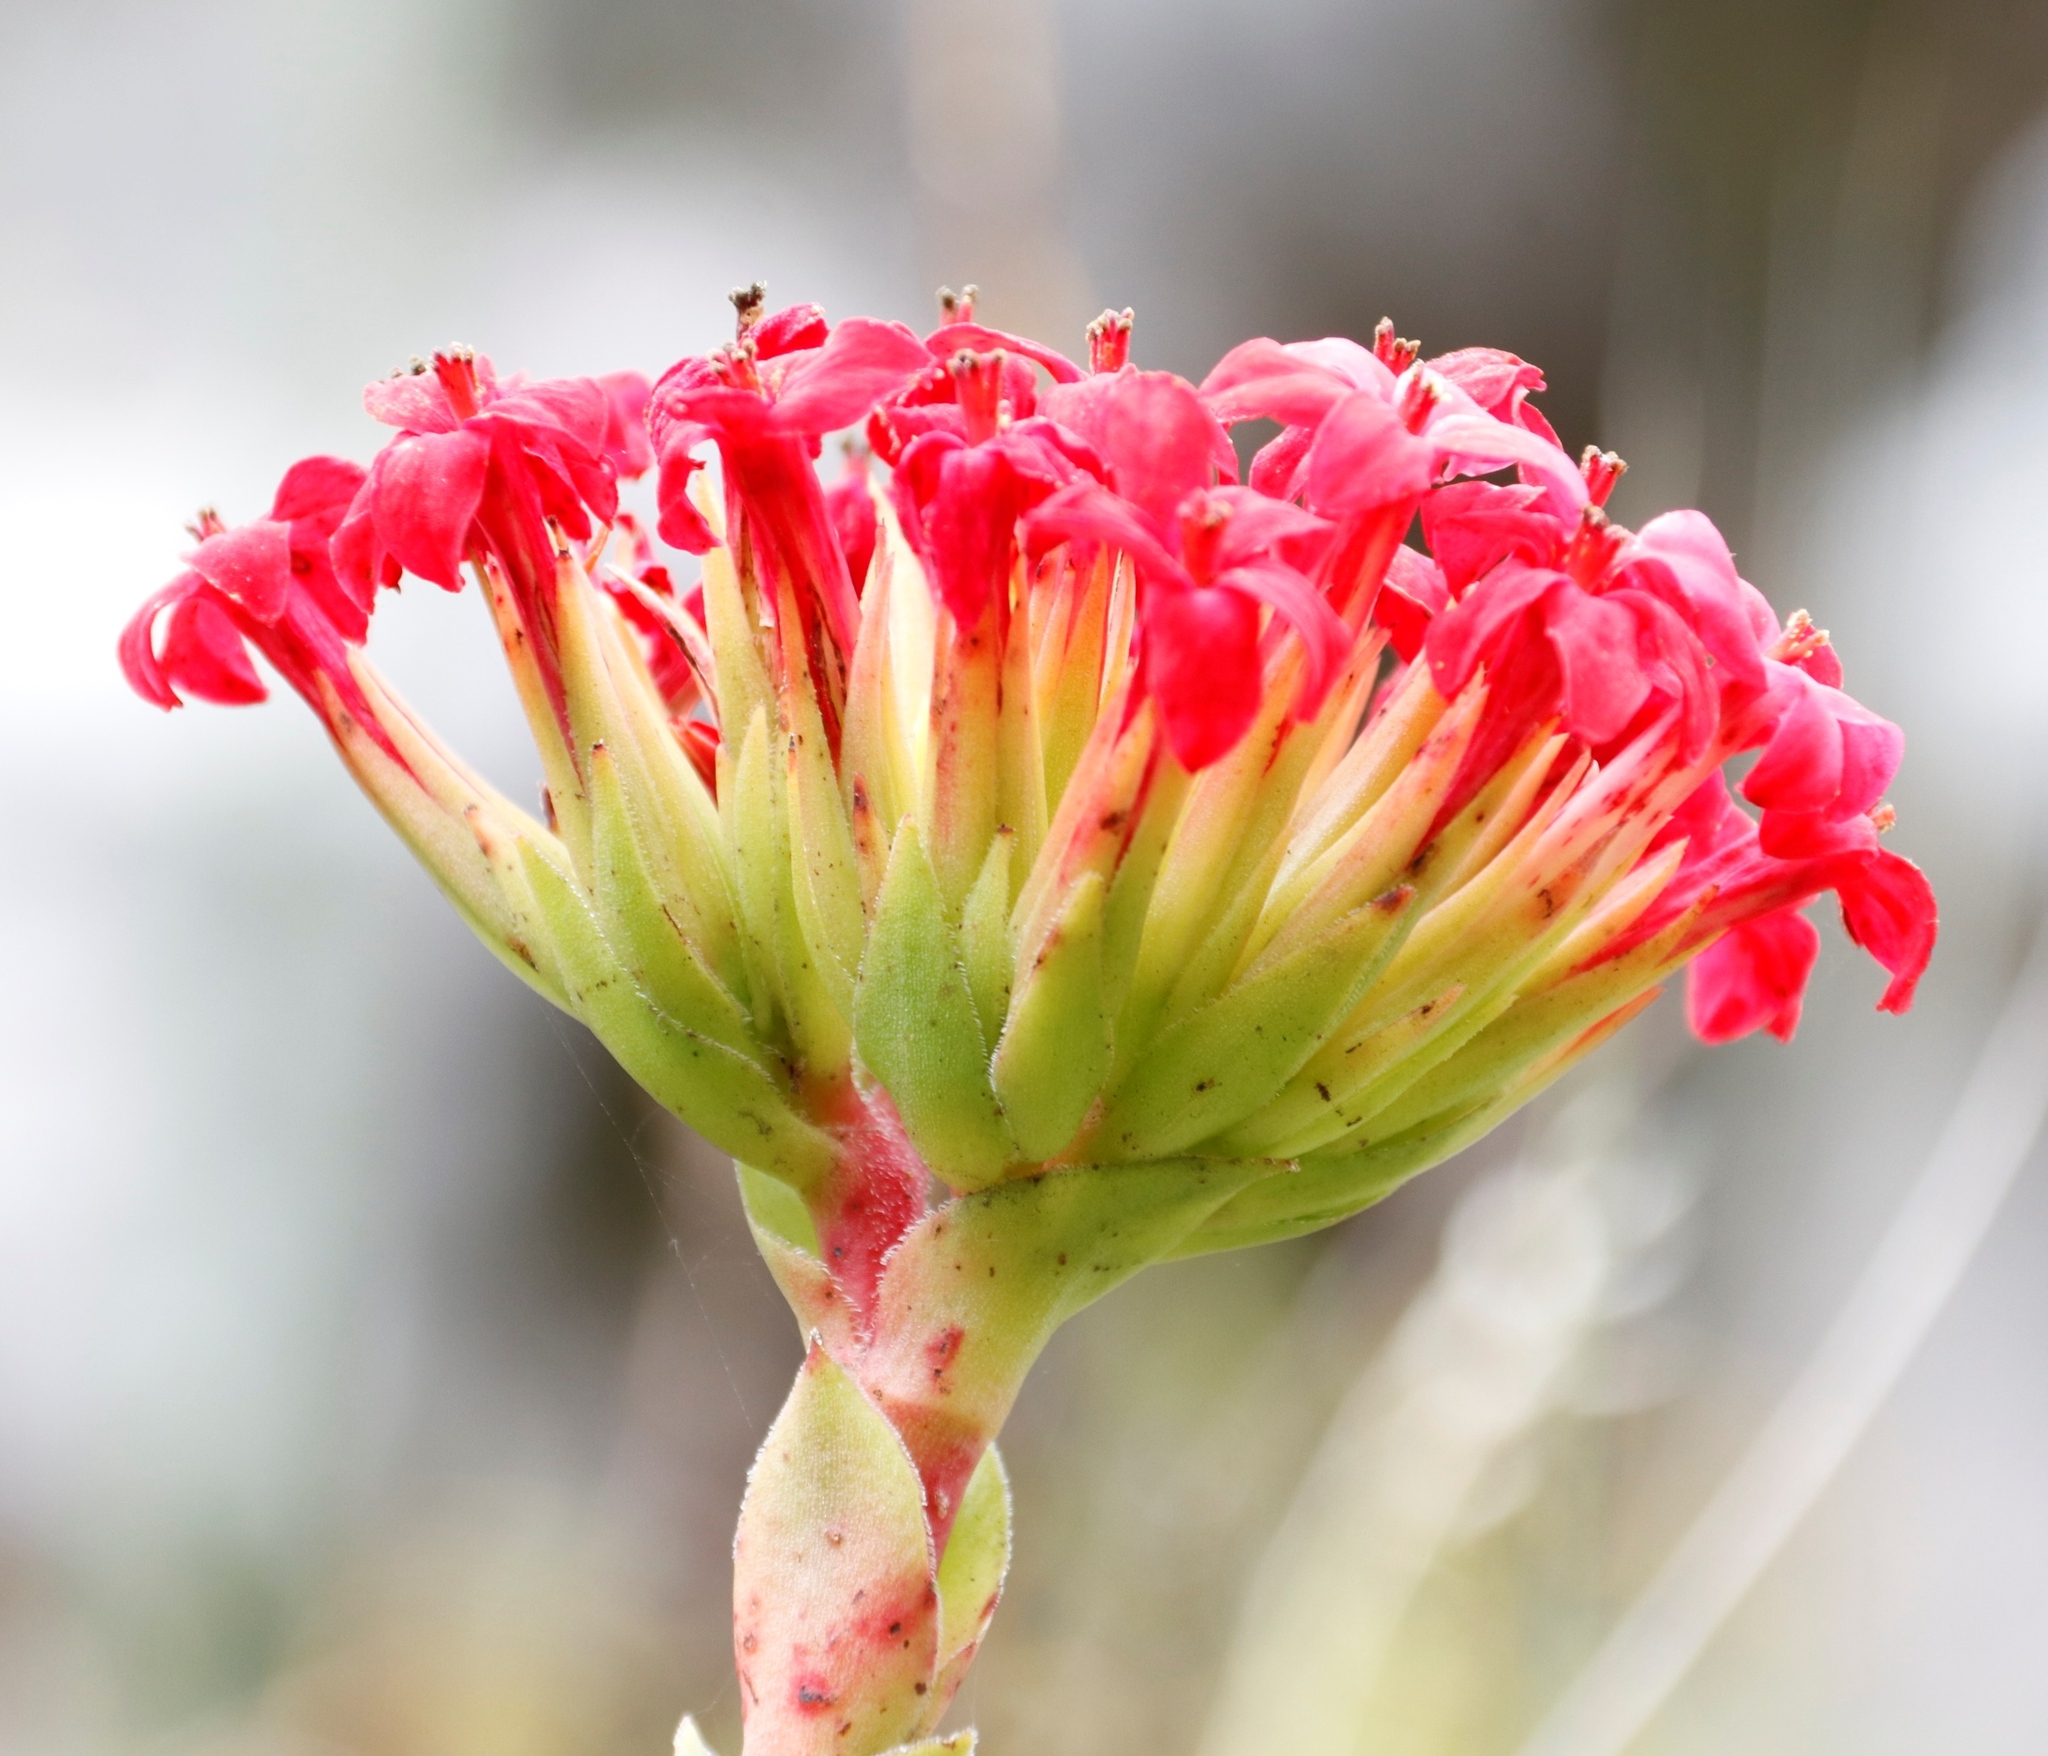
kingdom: Plantae
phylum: Tracheophyta
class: Magnoliopsida
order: Saxifragales
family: Crassulaceae
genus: Crassula
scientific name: Crassula coccinea
